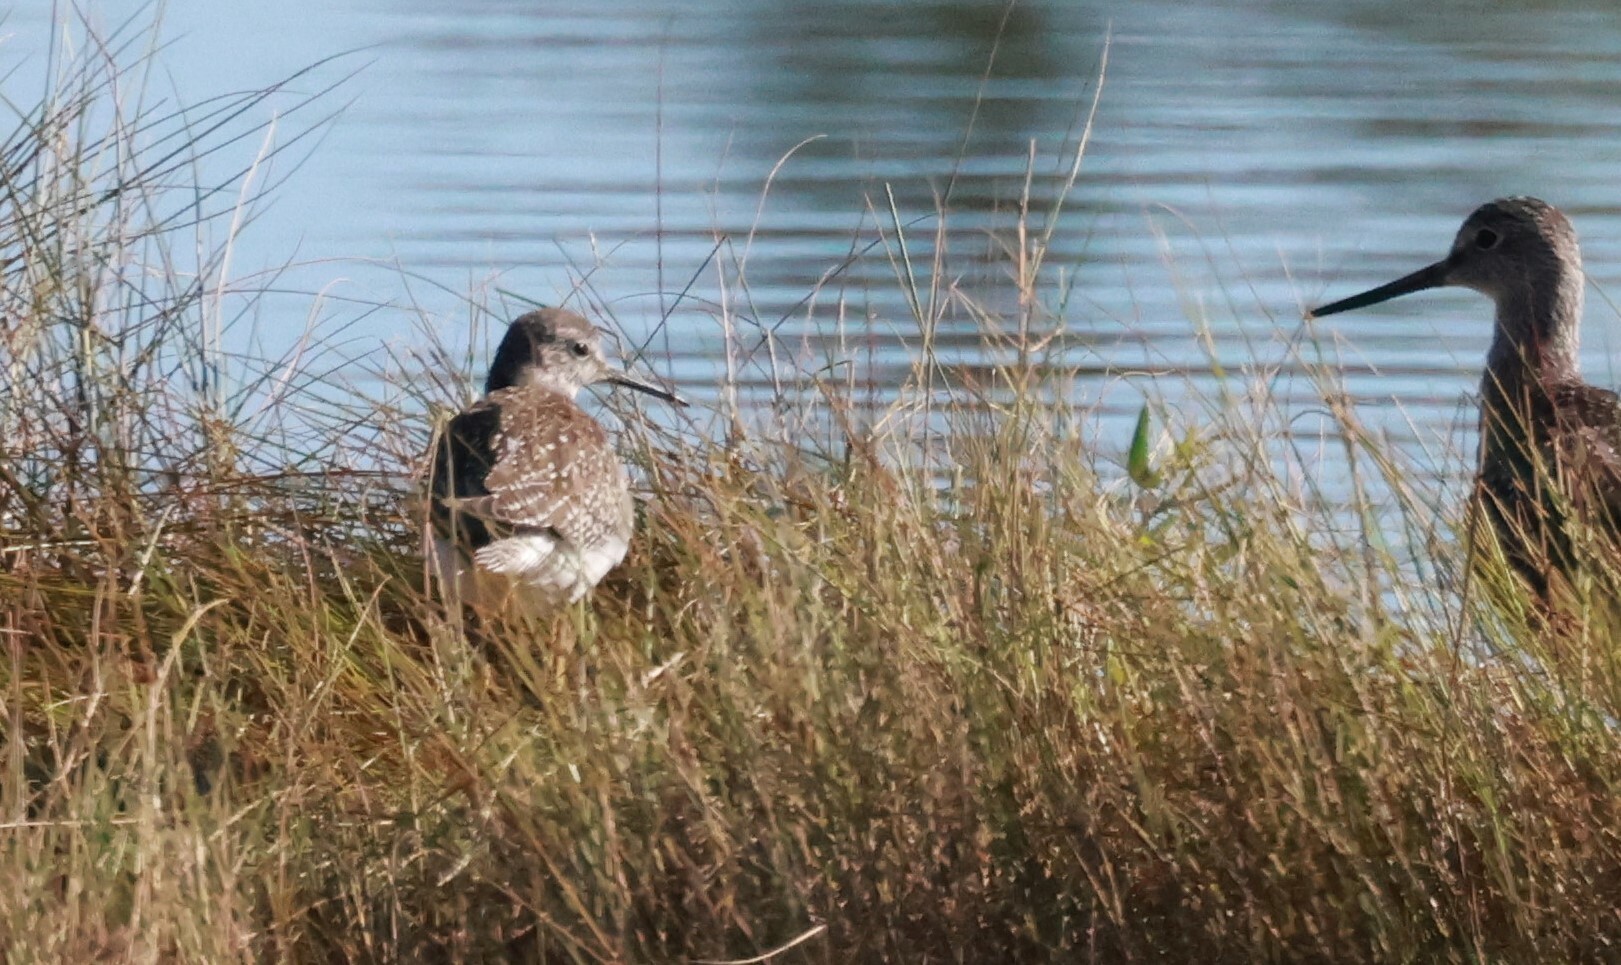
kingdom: Animalia
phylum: Chordata
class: Aves
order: Charadriiformes
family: Scolopacidae
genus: Tringa
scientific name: Tringa flavipes
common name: Lesser yellowlegs
